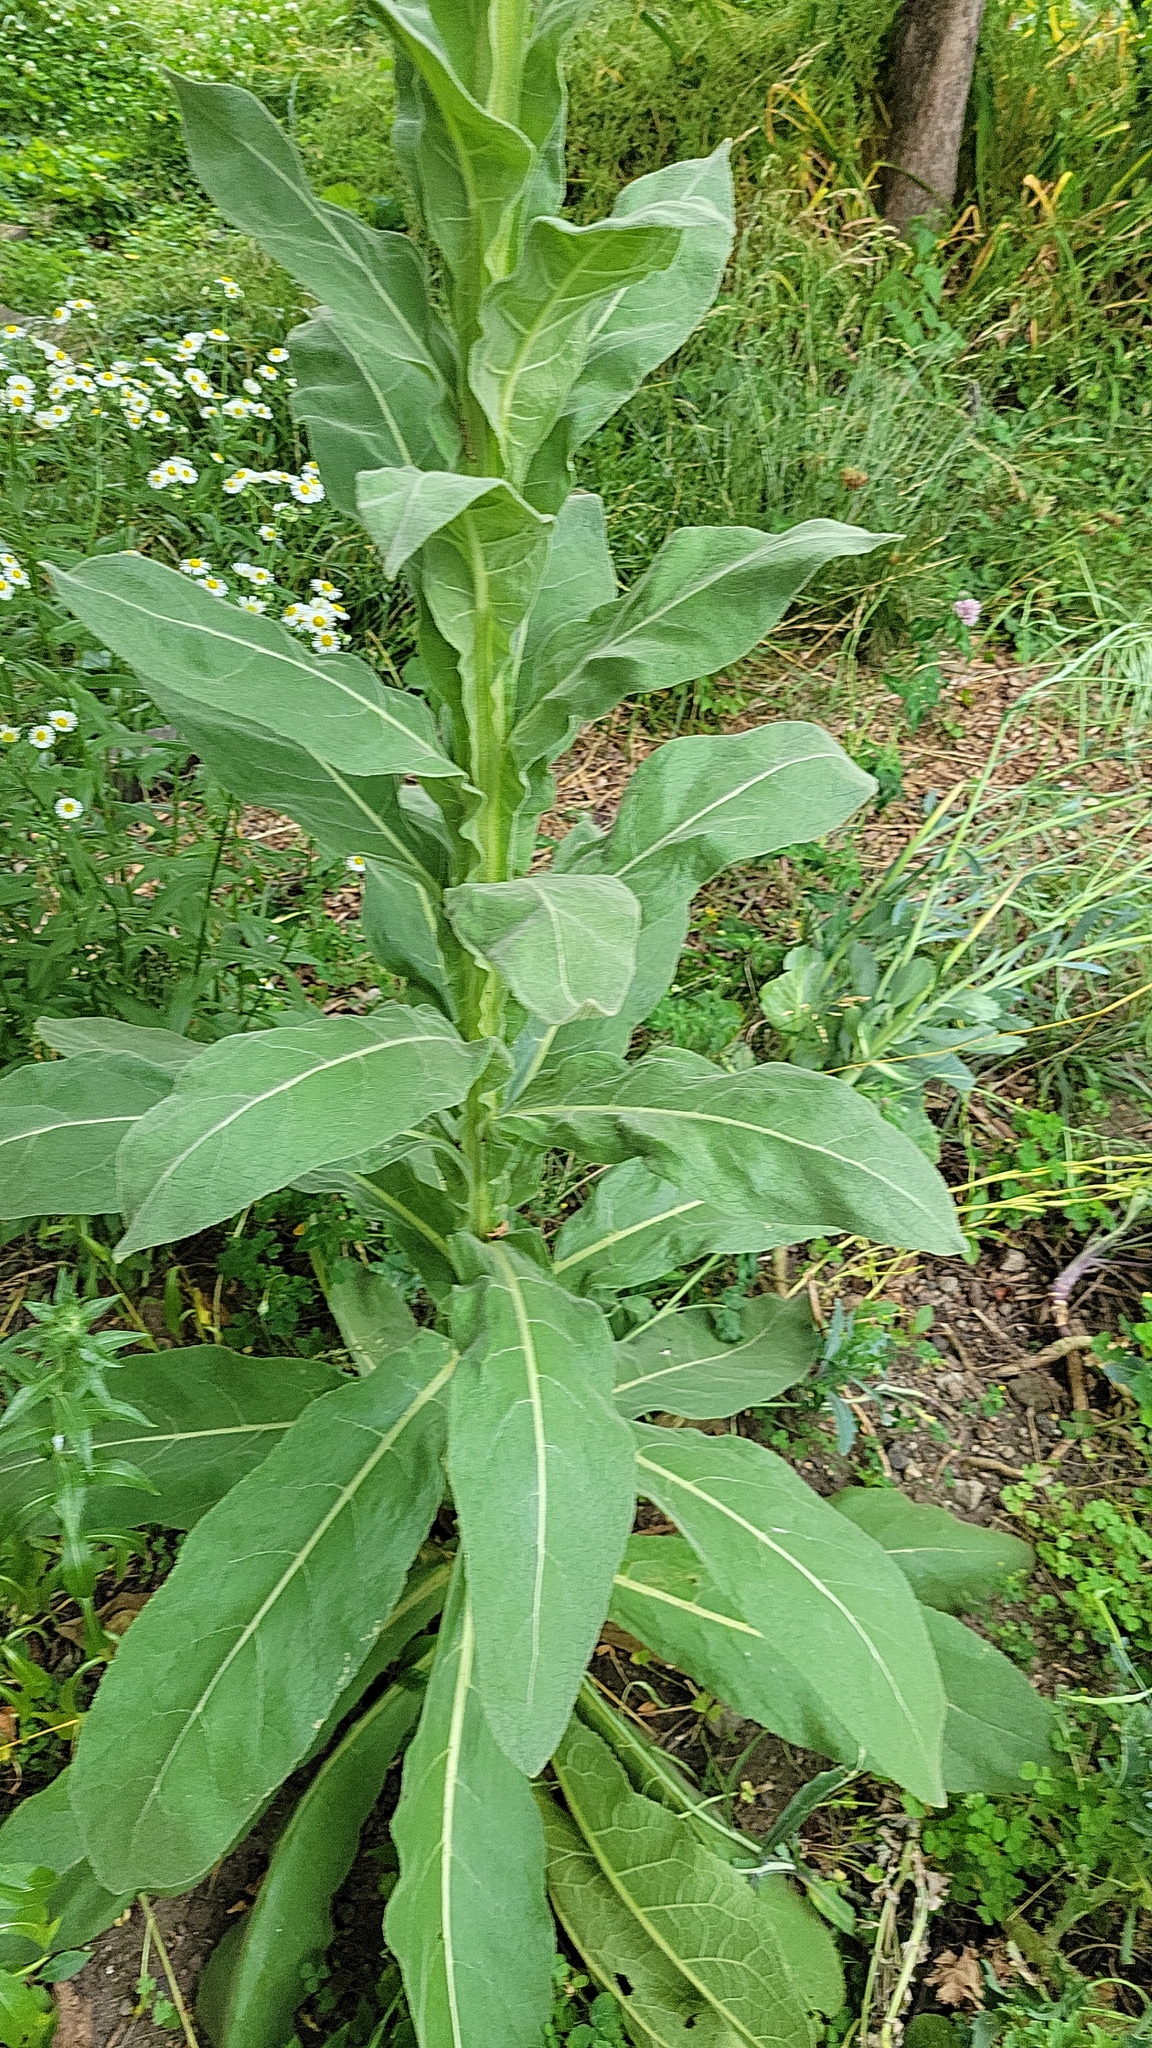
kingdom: Plantae
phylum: Tracheophyta
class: Magnoliopsida
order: Lamiales
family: Scrophulariaceae
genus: Verbascum
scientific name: Verbascum thapsus
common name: Common mullein
